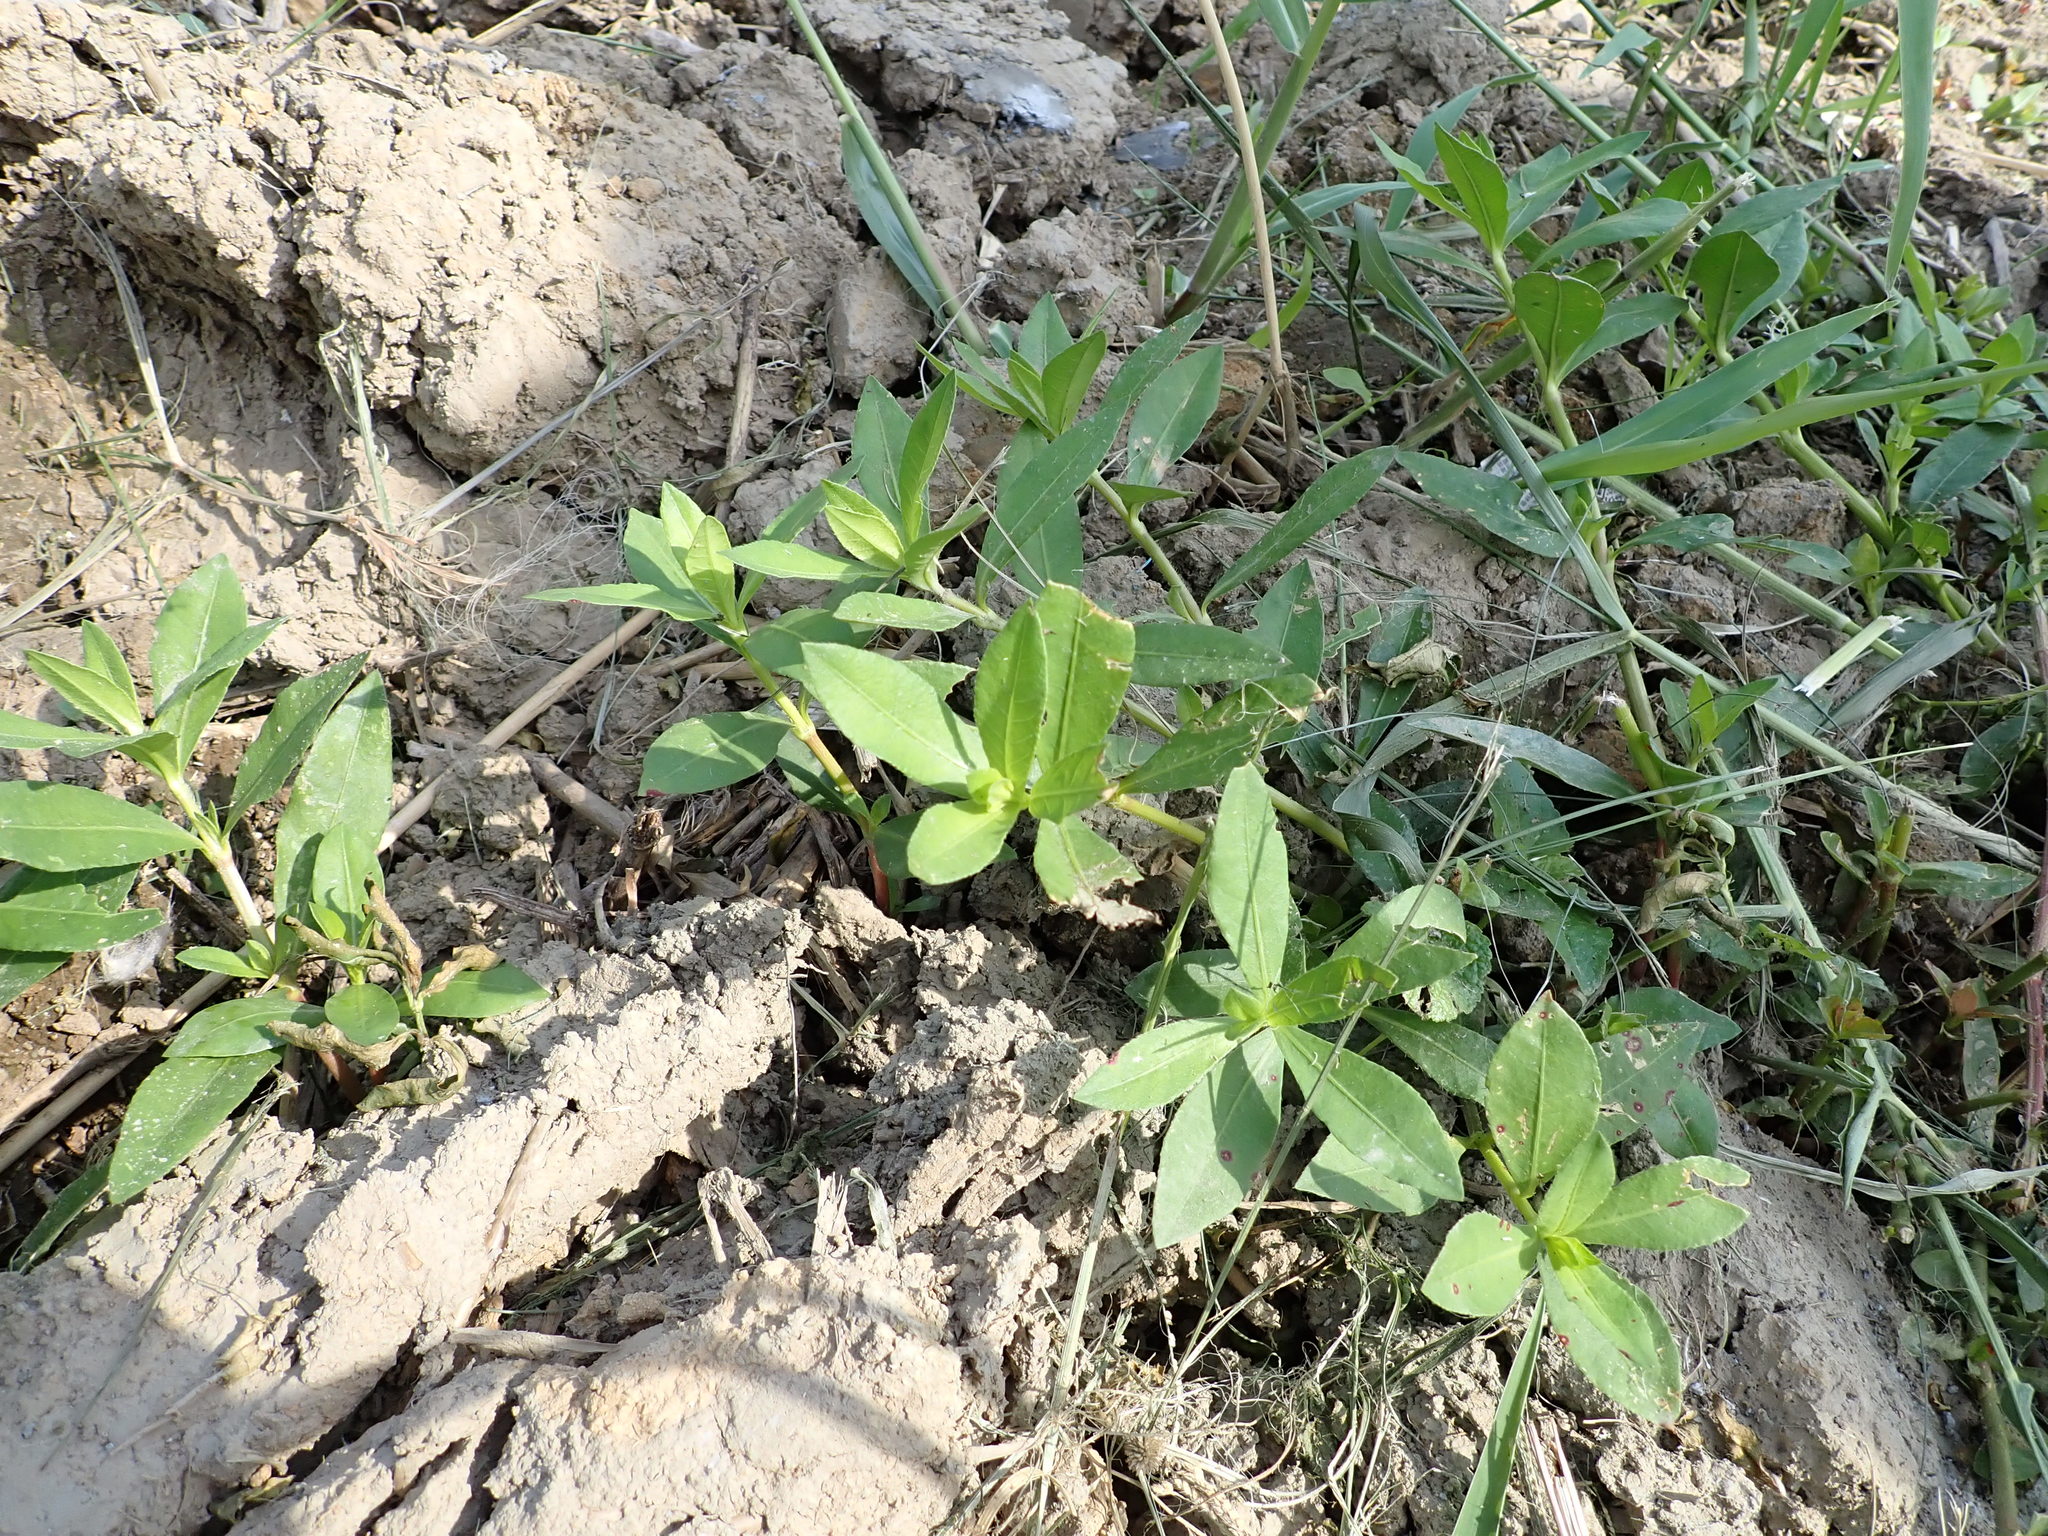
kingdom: Plantae
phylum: Tracheophyta
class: Magnoliopsida
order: Caryophyllales
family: Amaranthaceae
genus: Alternanthera
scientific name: Alternanthera philoxeroides
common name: Alligatorweed
